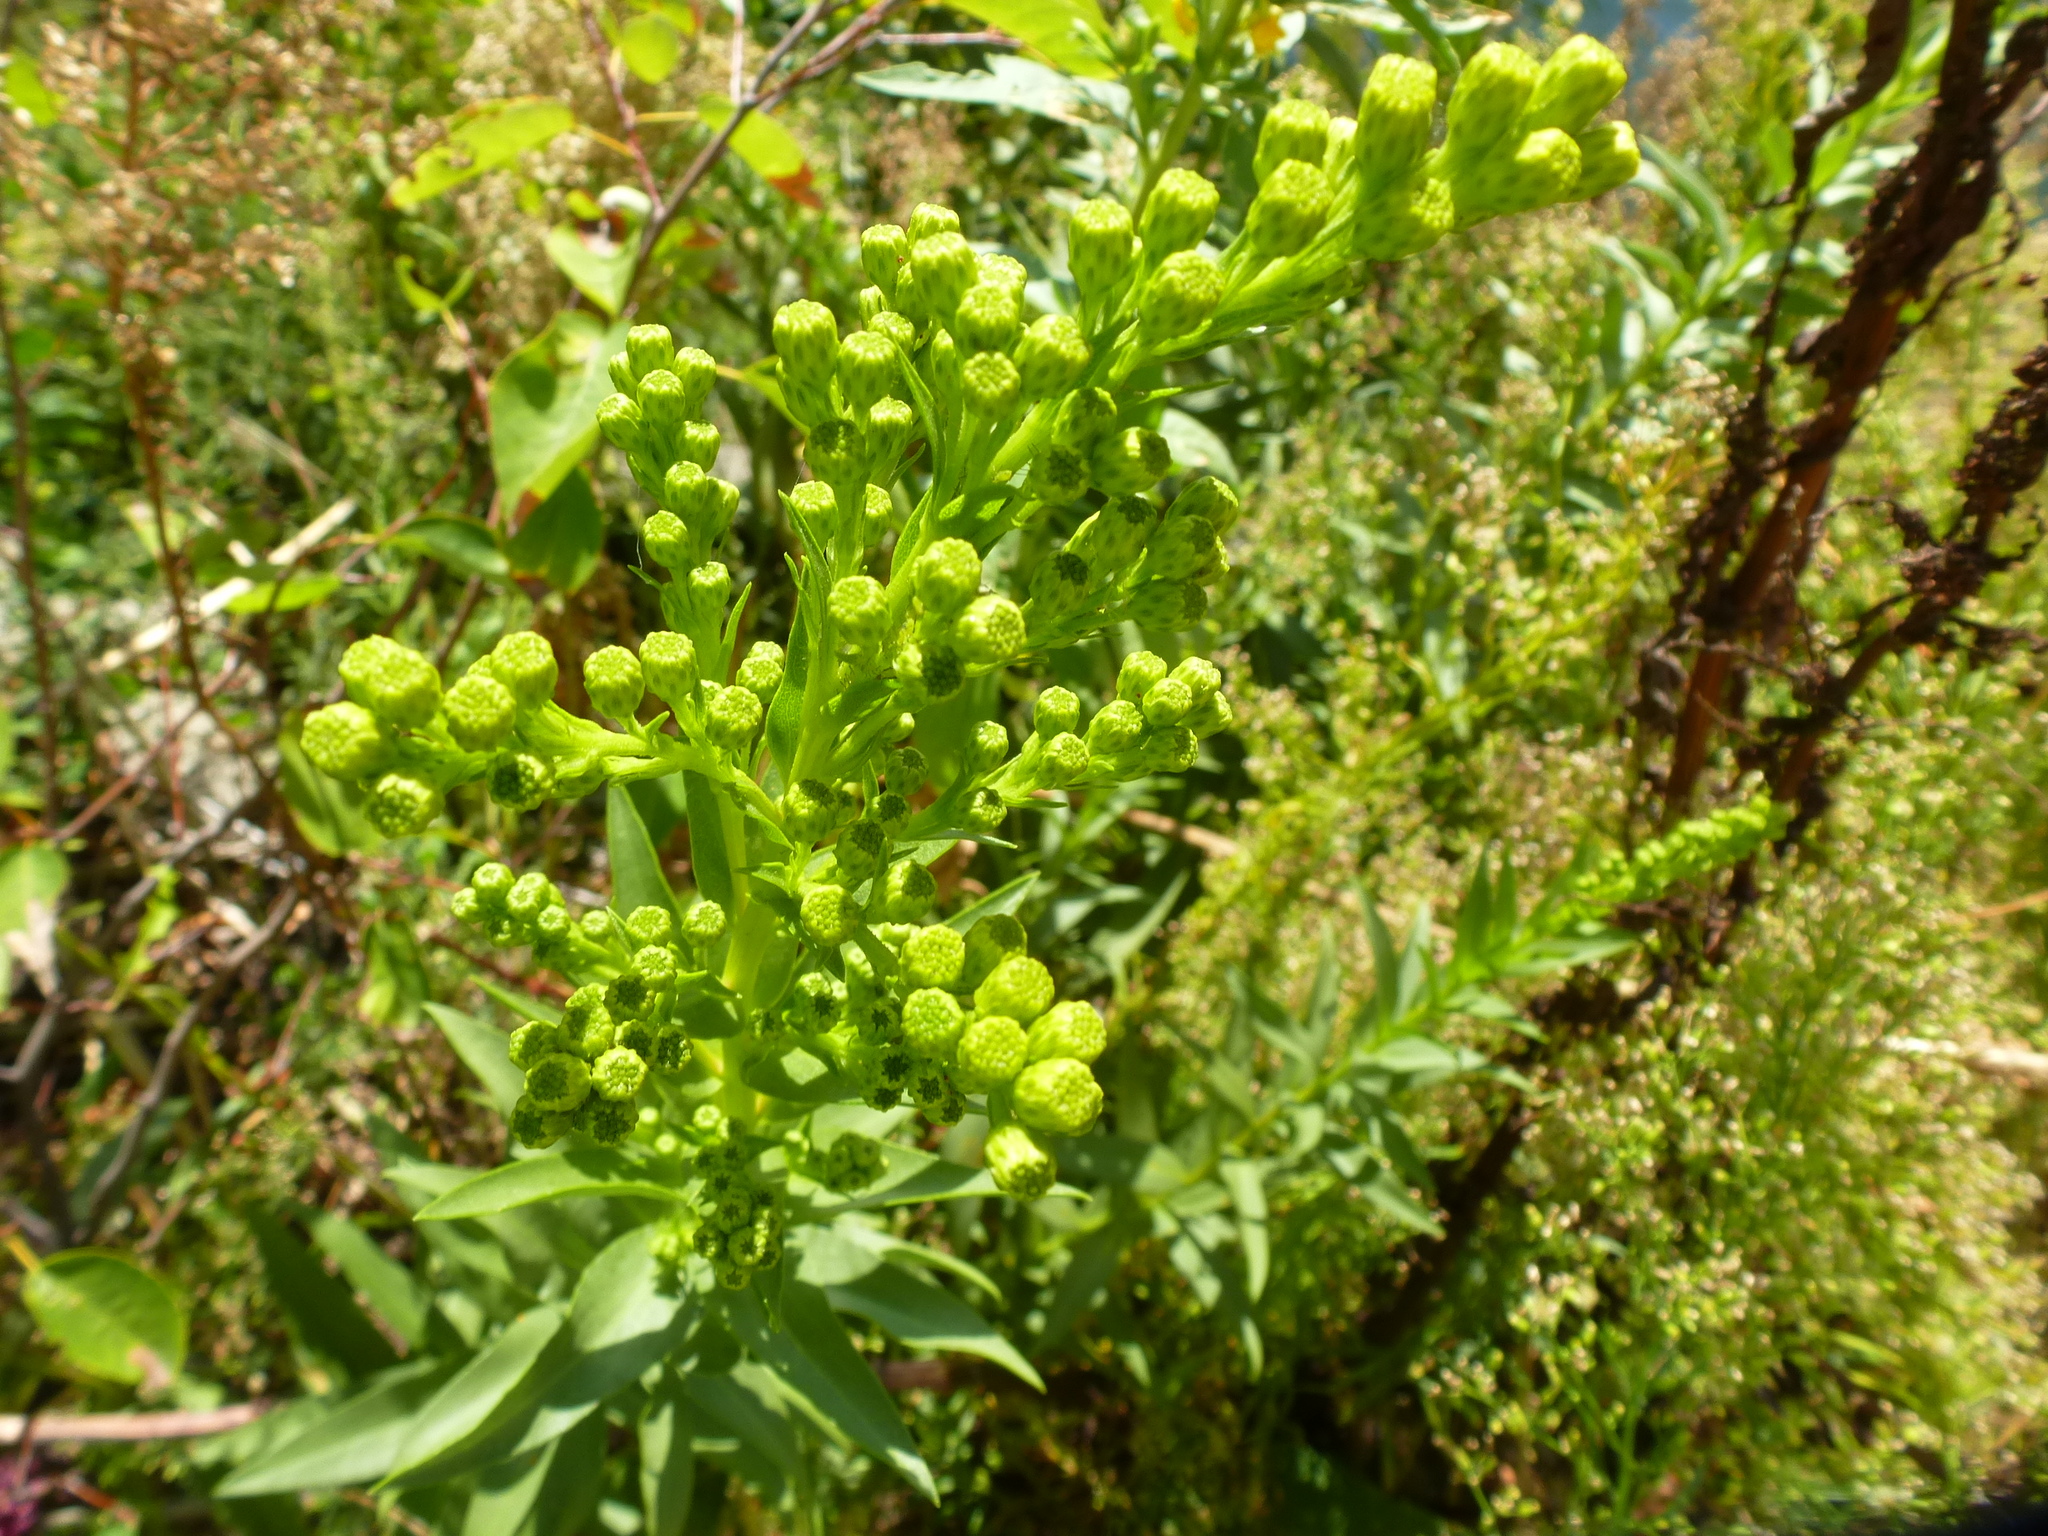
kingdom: Plantae
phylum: Tracheophyta
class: Magnoliopsida
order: Asterales
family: Asteraceae
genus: Solidago
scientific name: Solidago sempervirens
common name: Salt-marsh goldenrod
